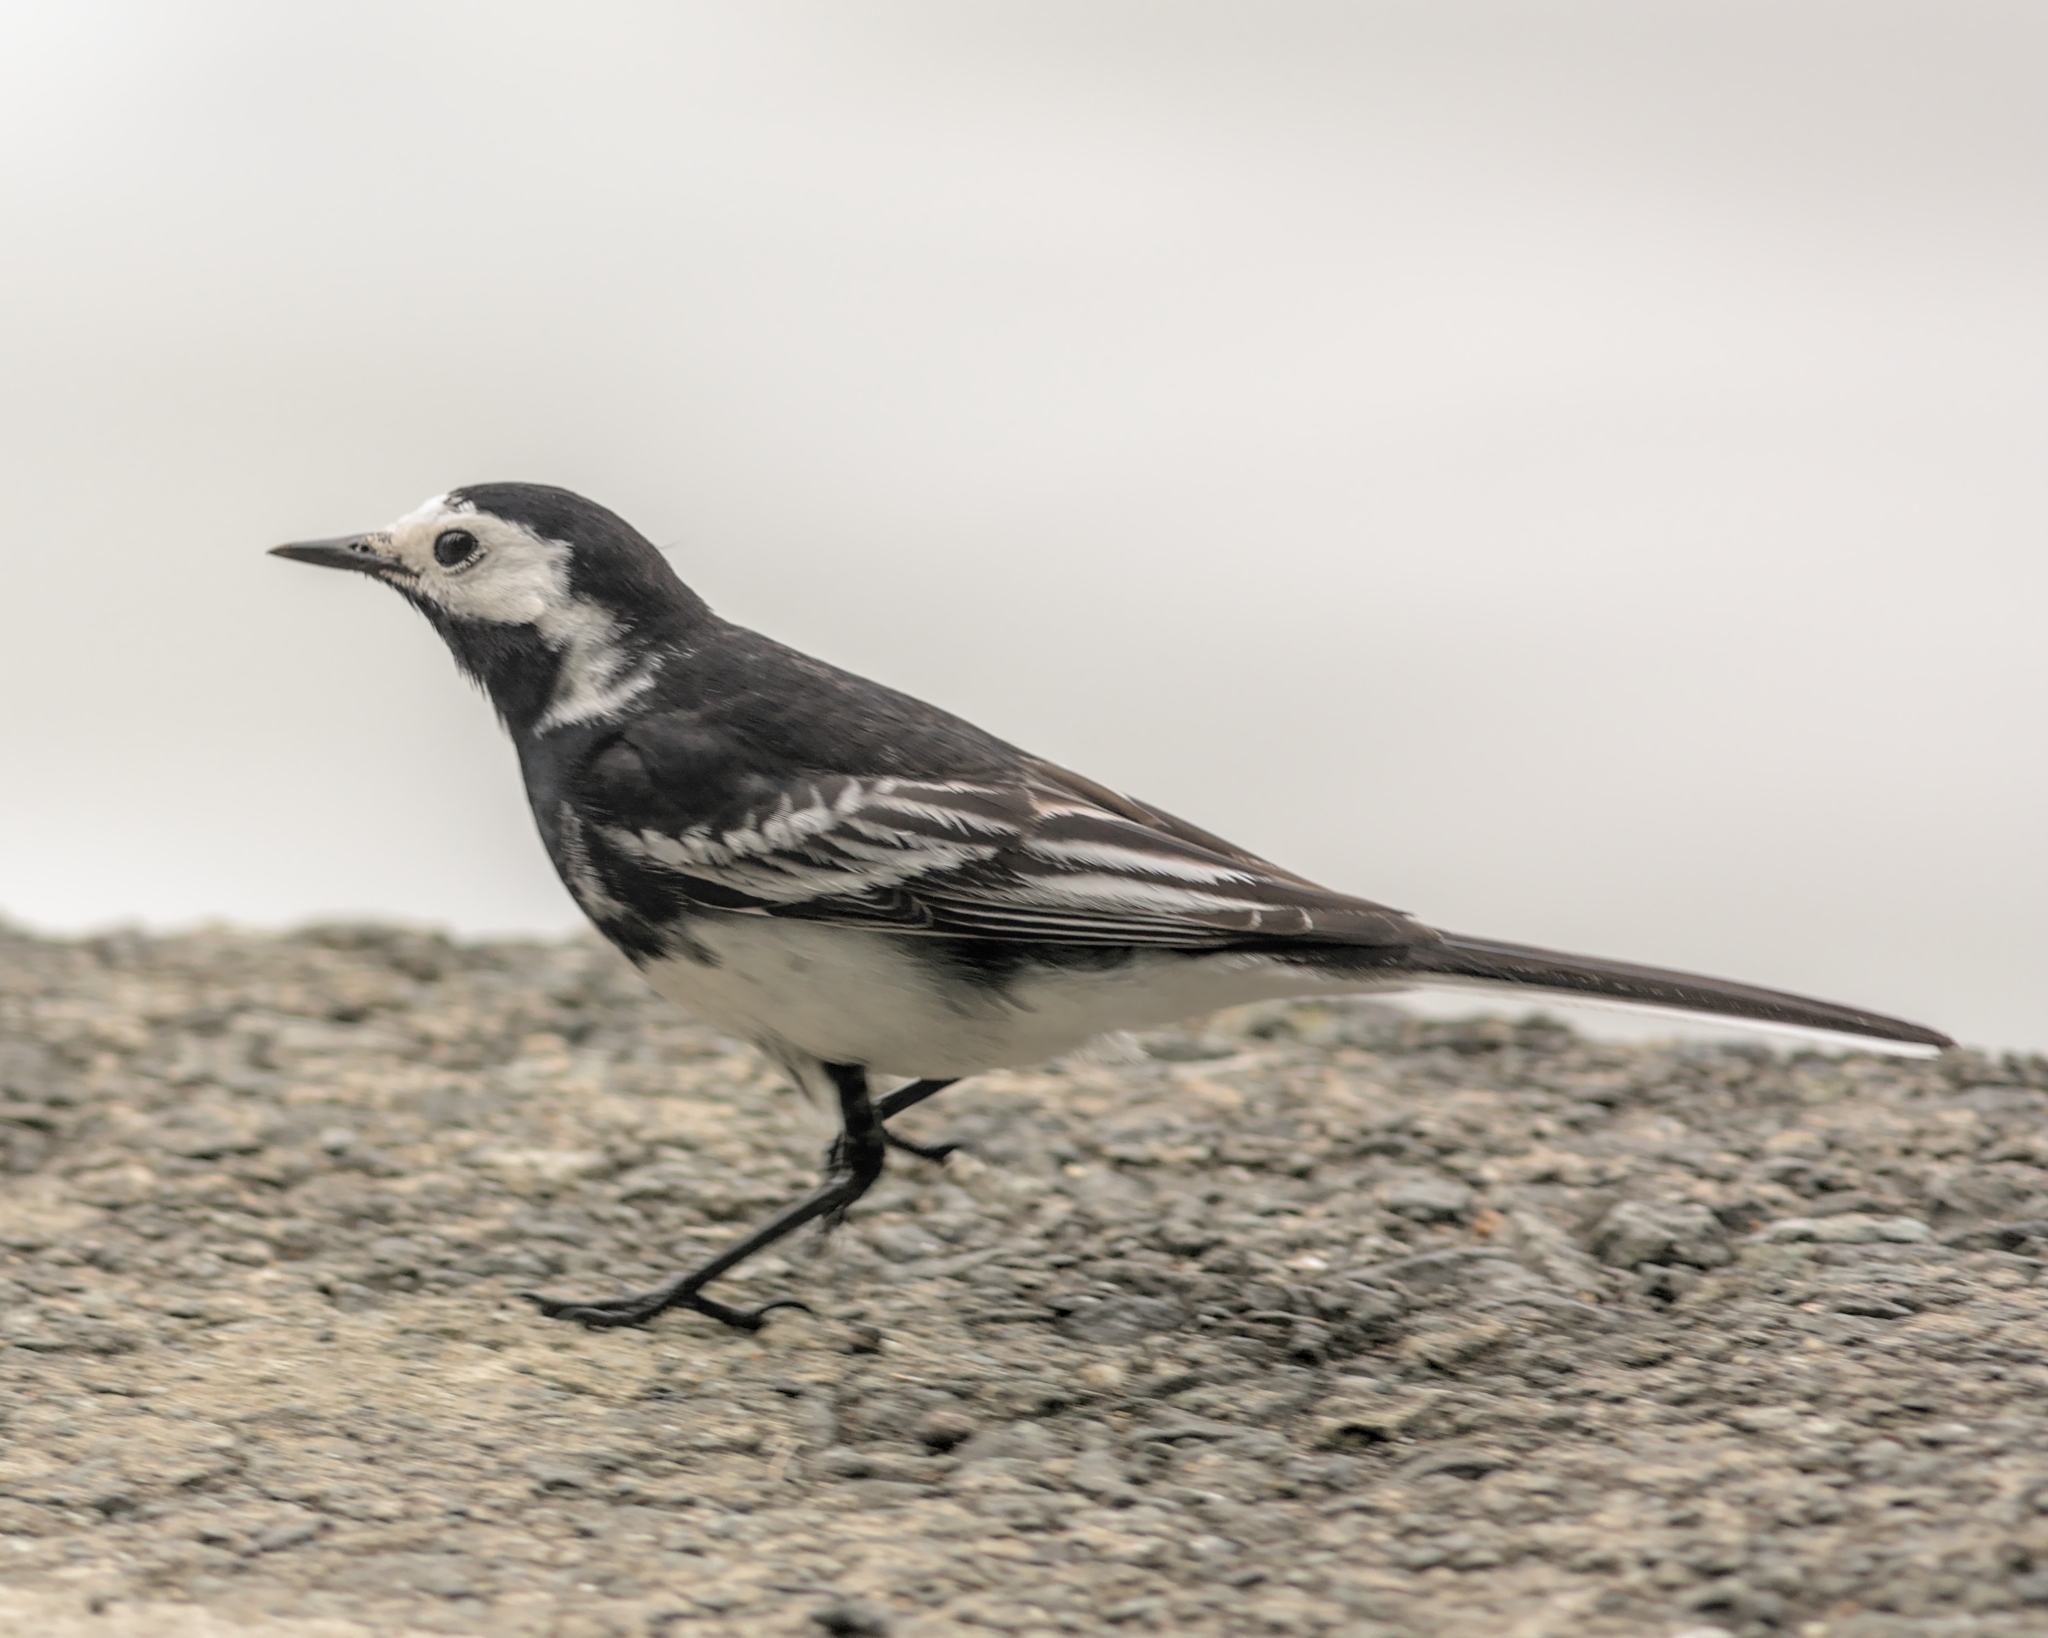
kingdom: Animalia
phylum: Chordata
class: Aves
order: Passeriformes
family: Motacillidae
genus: Motacilla
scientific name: Motacilla alba
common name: White wagtail
